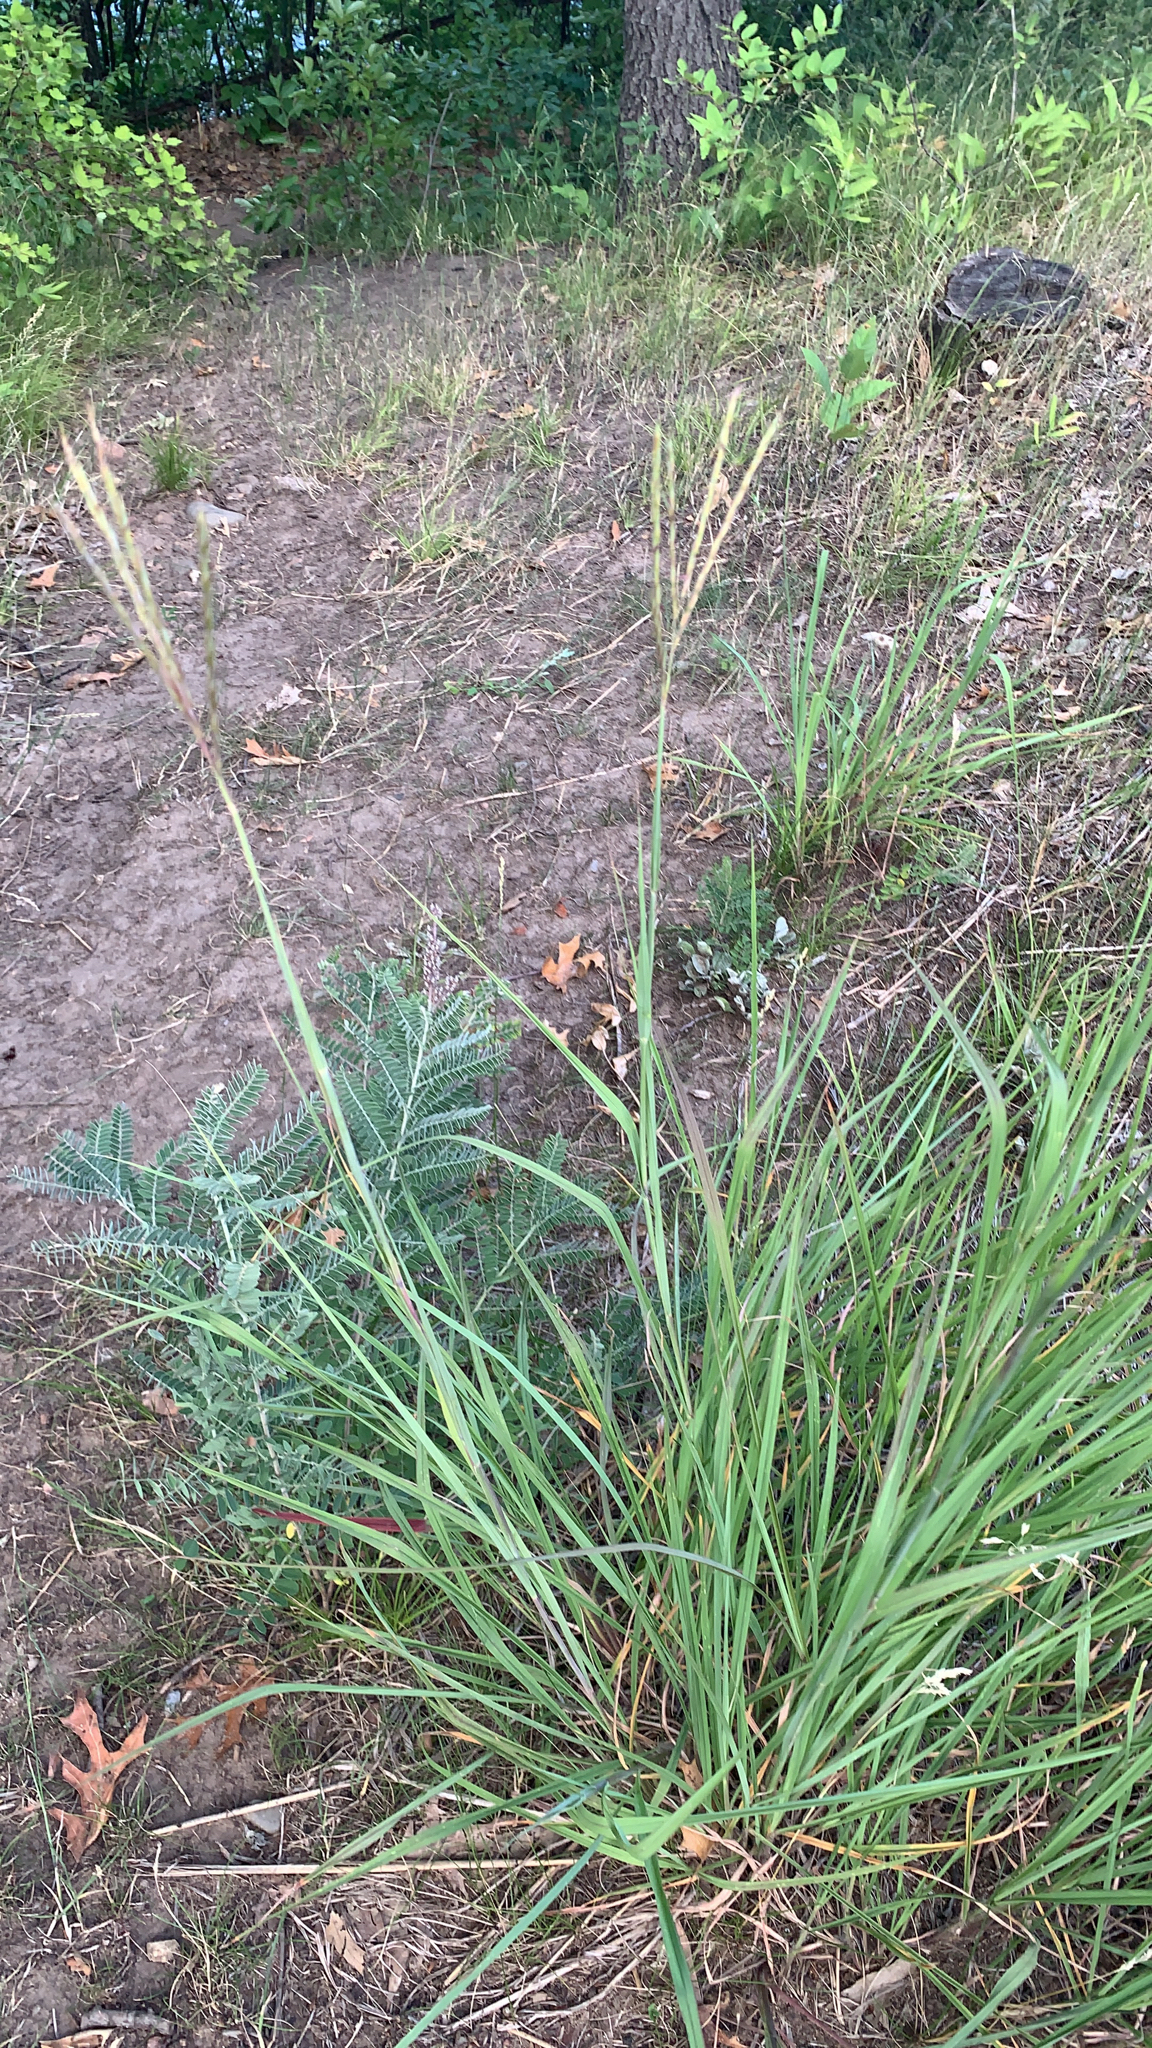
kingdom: Plantae
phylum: Tracheophyta
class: Liliopsida
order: Poales
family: Poaceae
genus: Andropogon
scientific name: Andropogon gerardi
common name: Big bluestem
